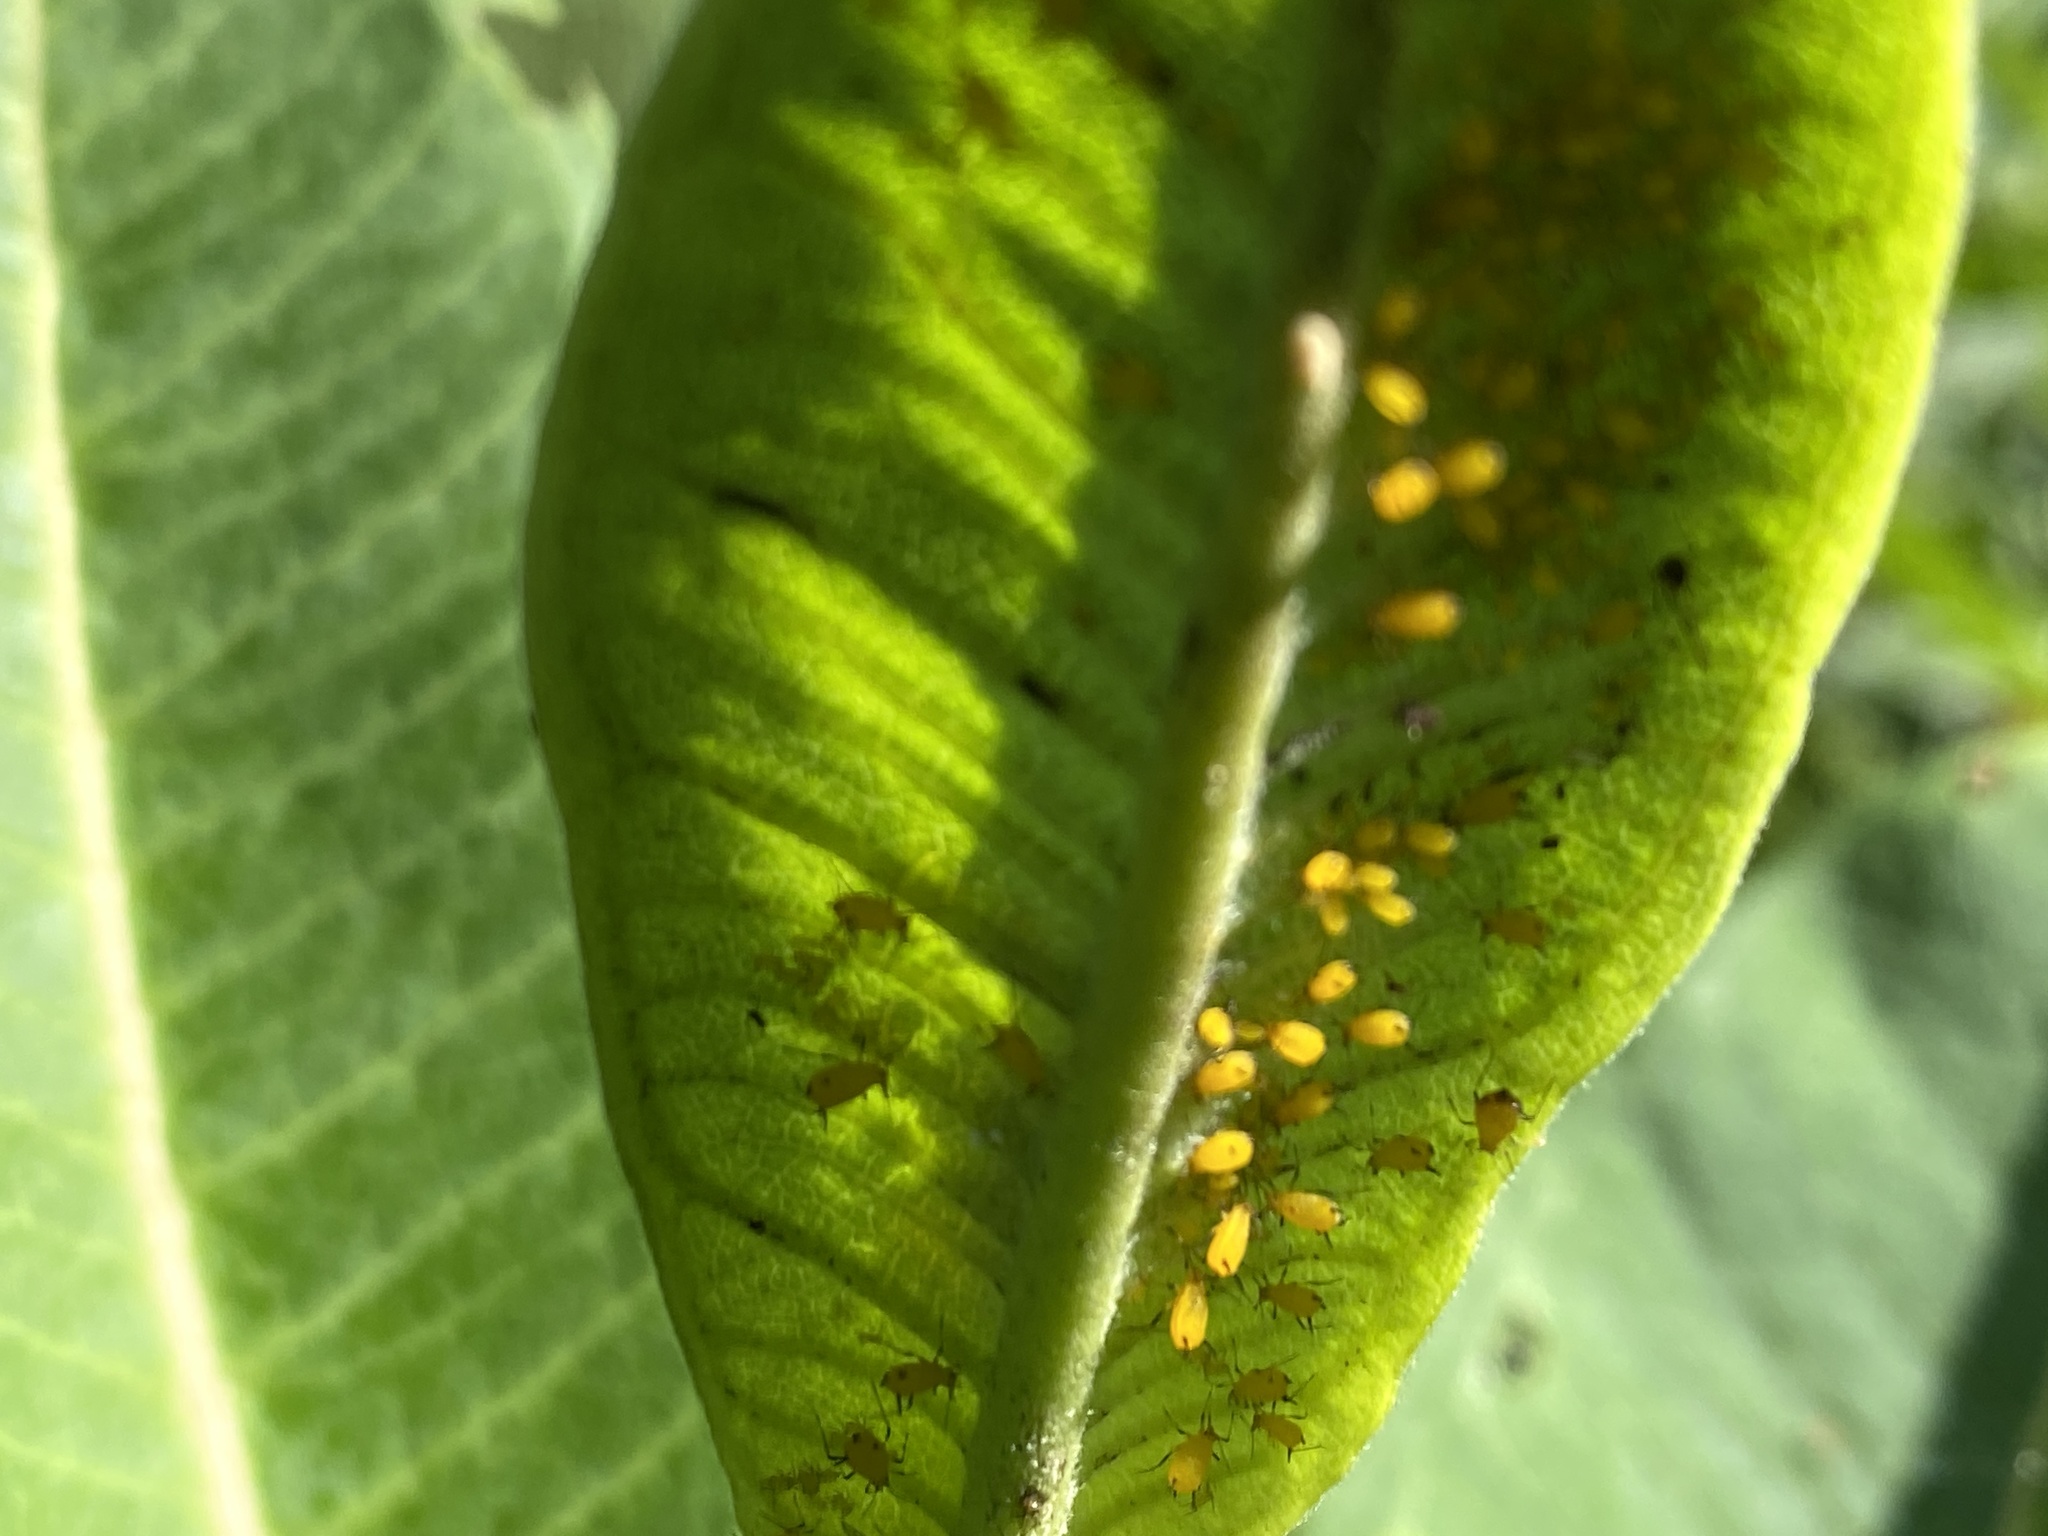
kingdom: Animalia
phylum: Arthropoda
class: Insecta
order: Hemiptera
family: Aphididae
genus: Aphis
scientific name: Aphis nerii
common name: Oleander aphid
